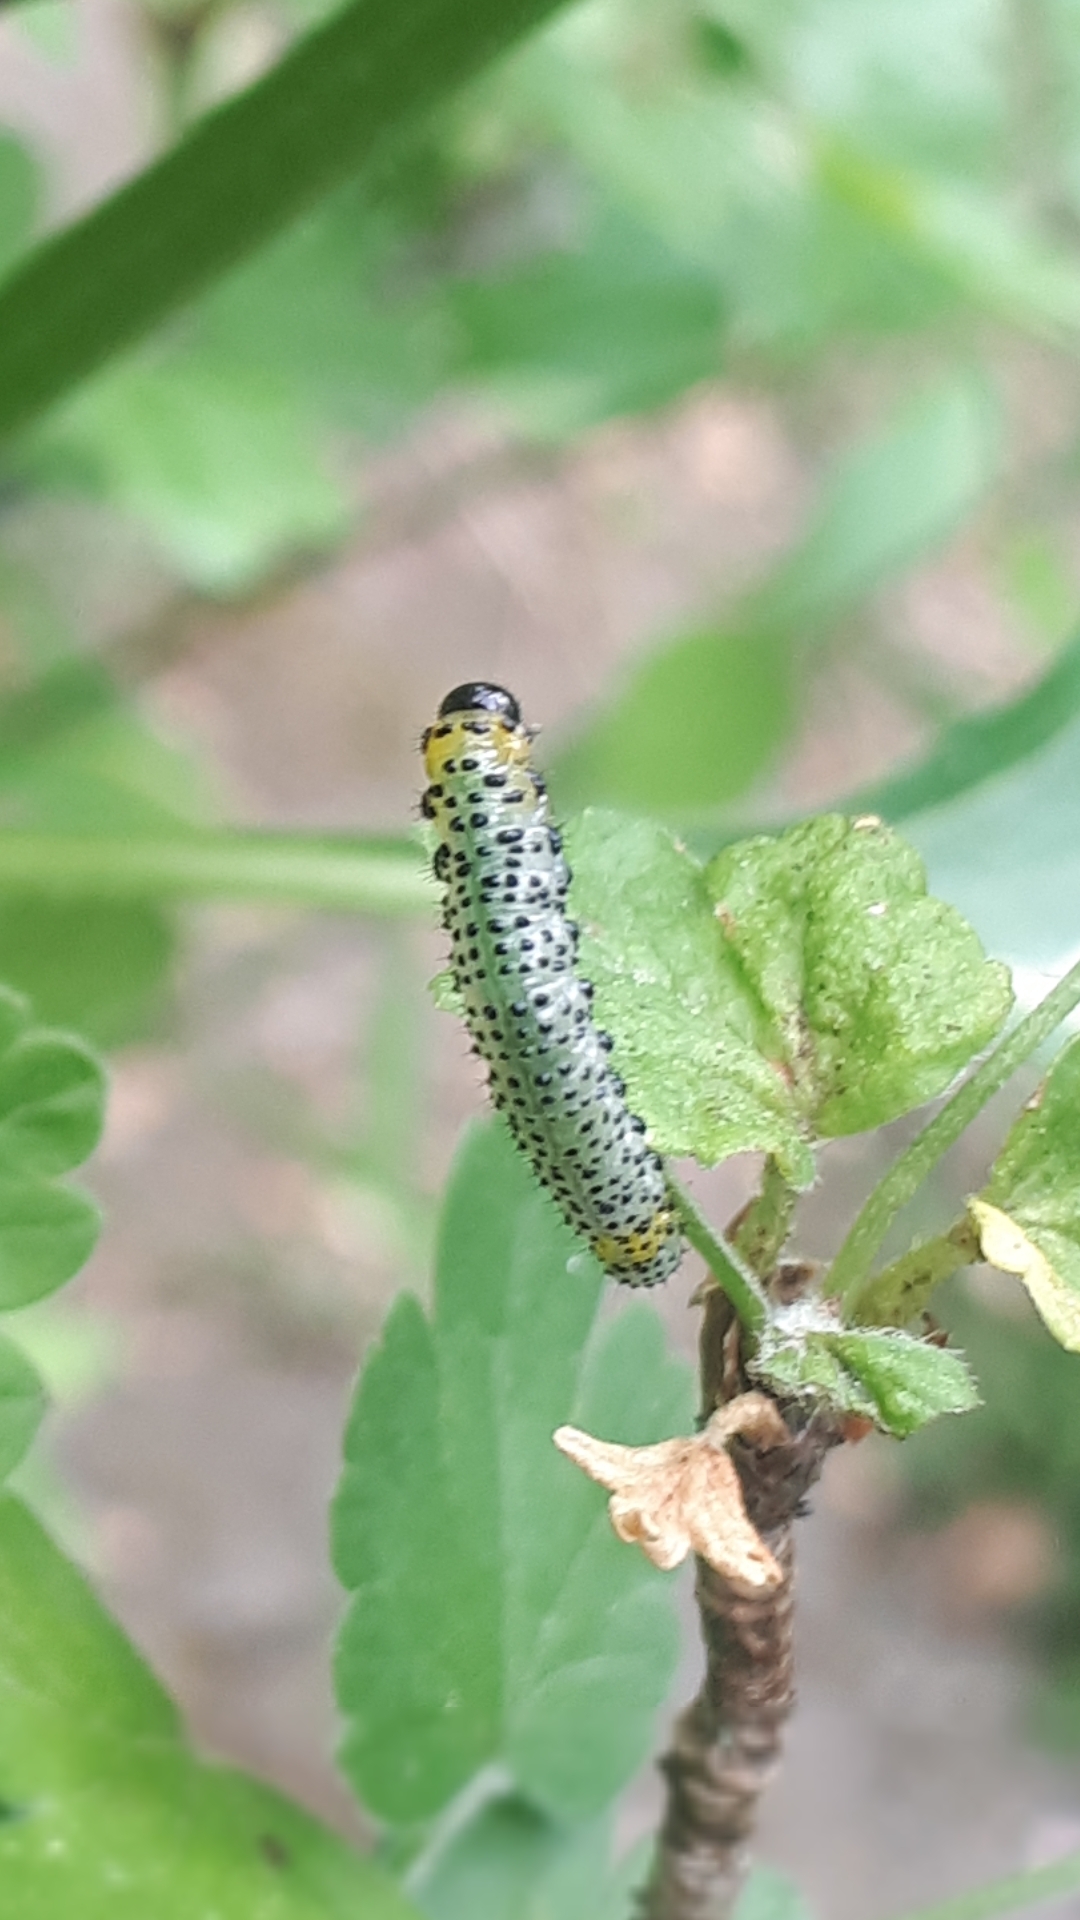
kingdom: Animalia
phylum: Arthropoda
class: Insecta
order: Hymenoptera
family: Tenthredinidae
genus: Nematus
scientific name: Nematus ribesii
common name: Imported currantworm
